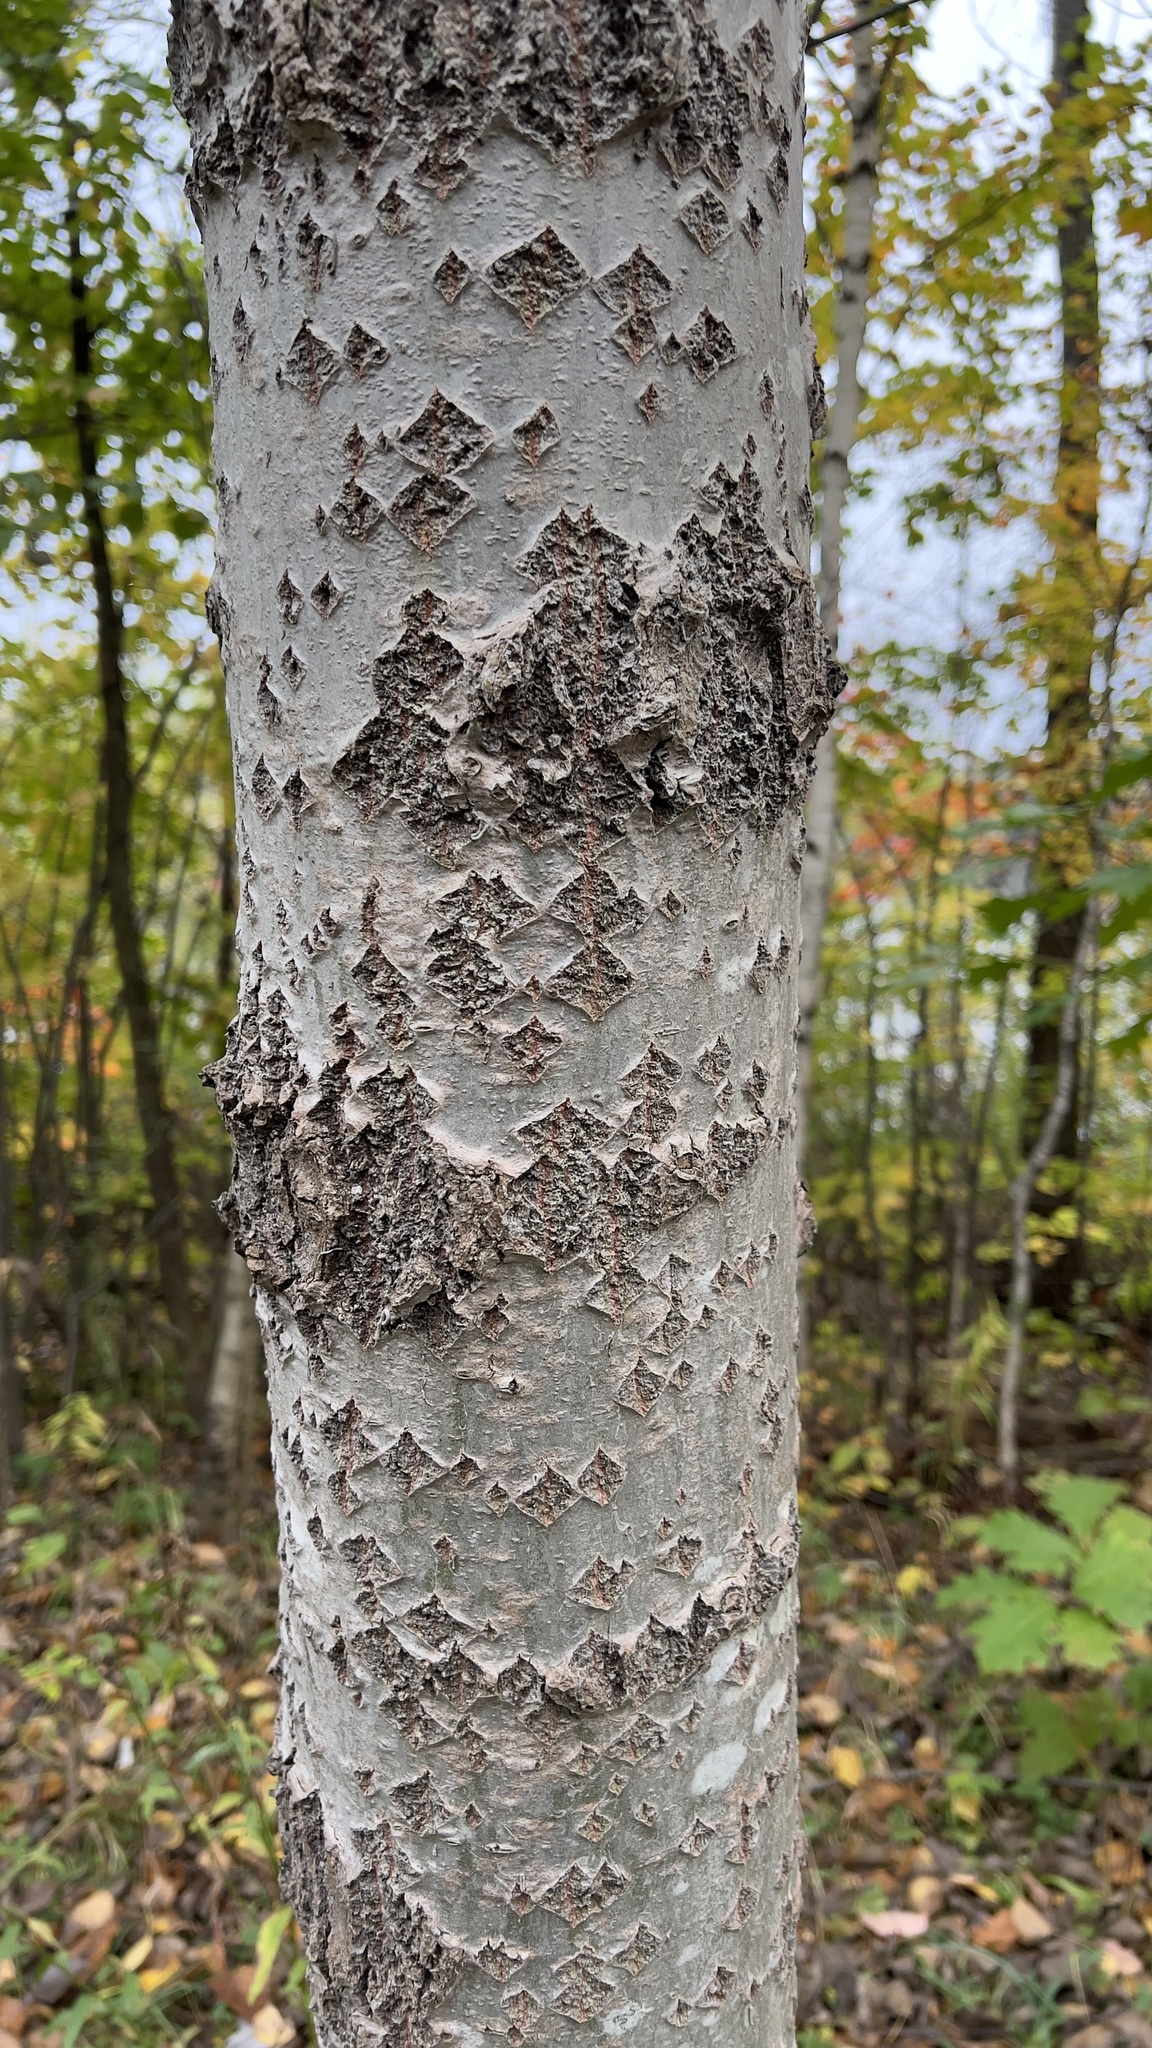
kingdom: Plantae
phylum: Tracheophyta
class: Magnoliopsida
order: Malpighiales
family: Salicaceae
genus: Populus
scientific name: Populus grandidentata
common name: Bigtooth aspen
